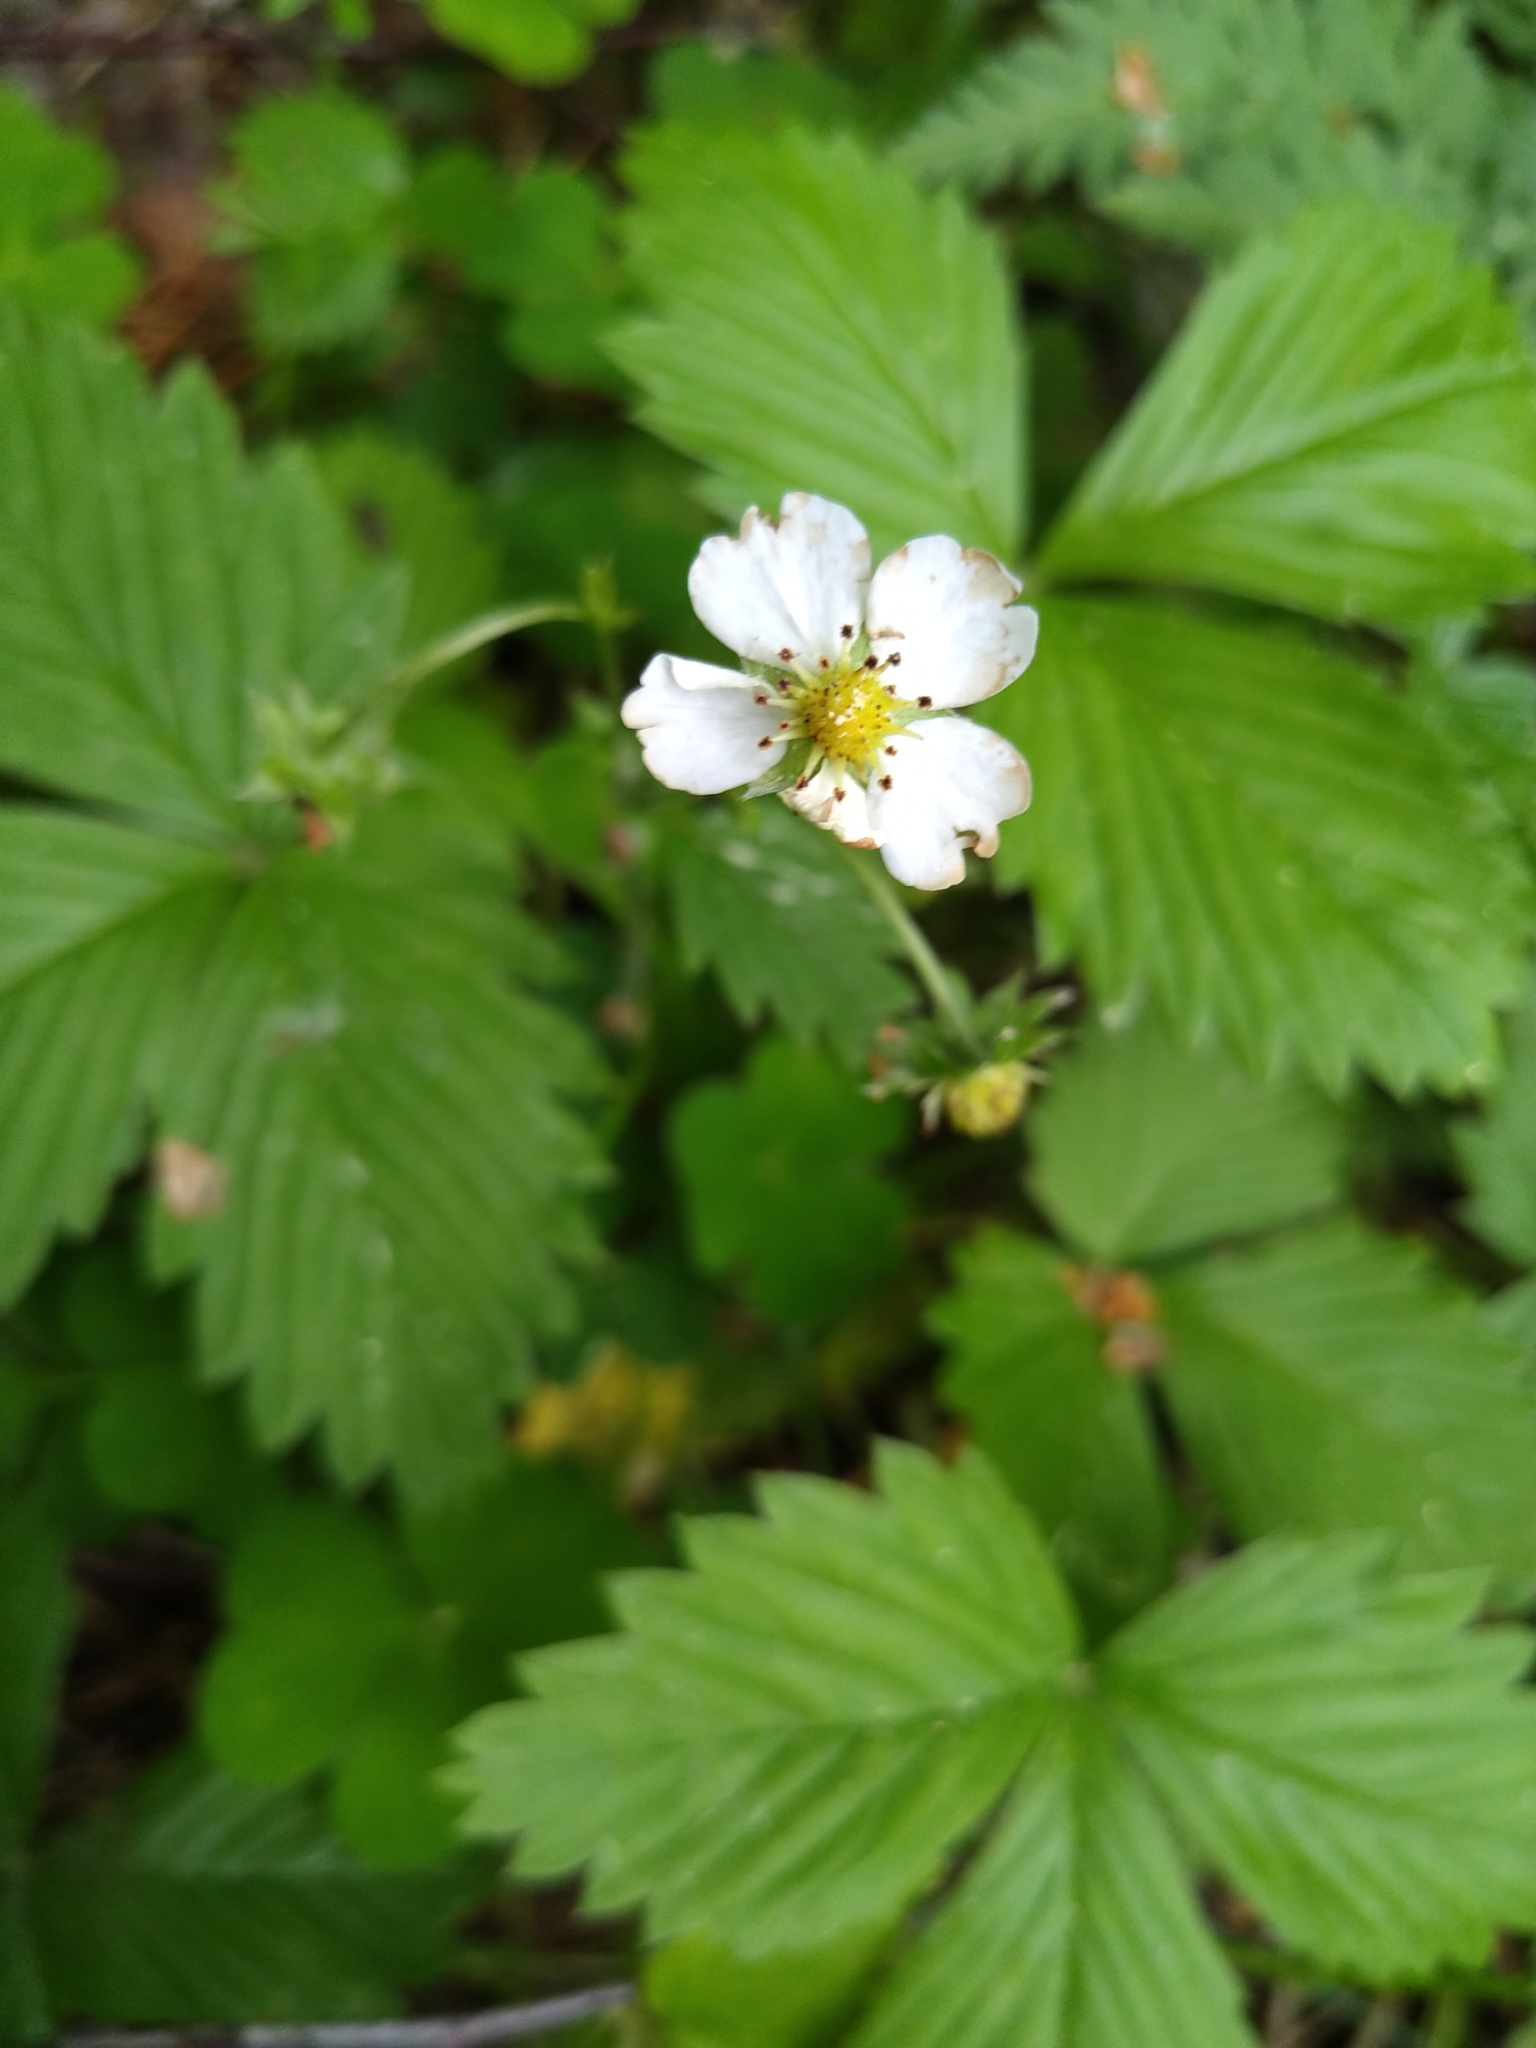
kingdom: Plantae
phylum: Tracheophyta
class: Magnoliopsida
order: Rosales
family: Rosaceae
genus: Fragaria
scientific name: Fragaria vesca
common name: Wild strawberry
